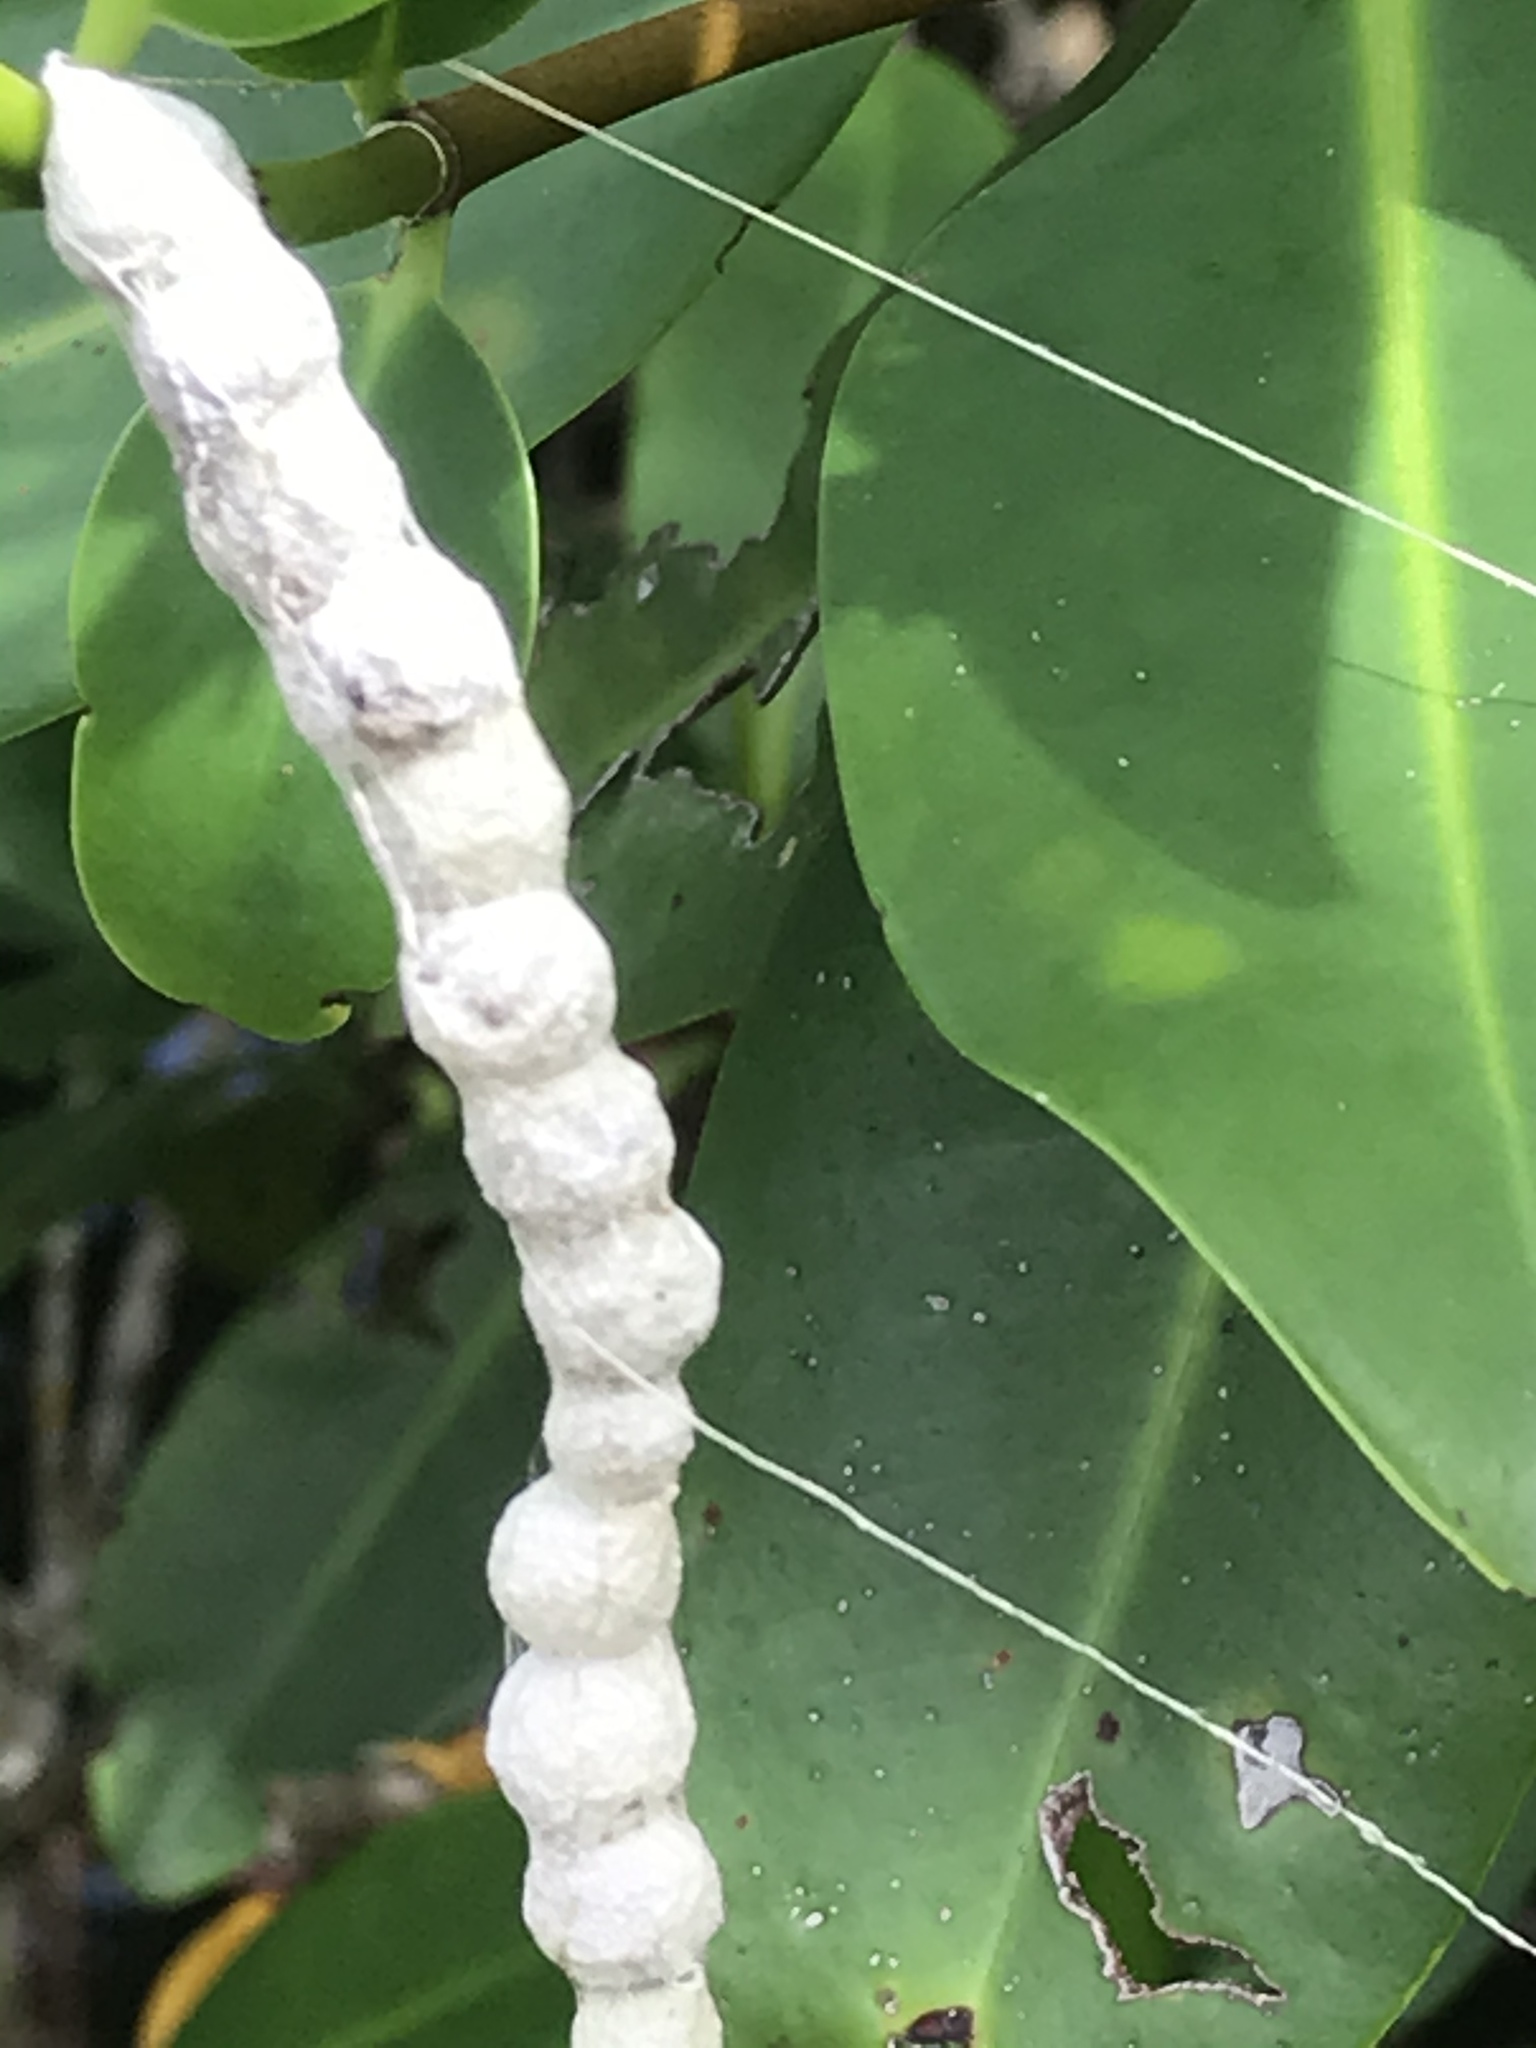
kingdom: Animalia
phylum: Arthropoda
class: Arachnida
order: Araneae
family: Araneidae
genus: Mecynogea
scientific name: Mecynogea lemniscata
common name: Orb weavers
